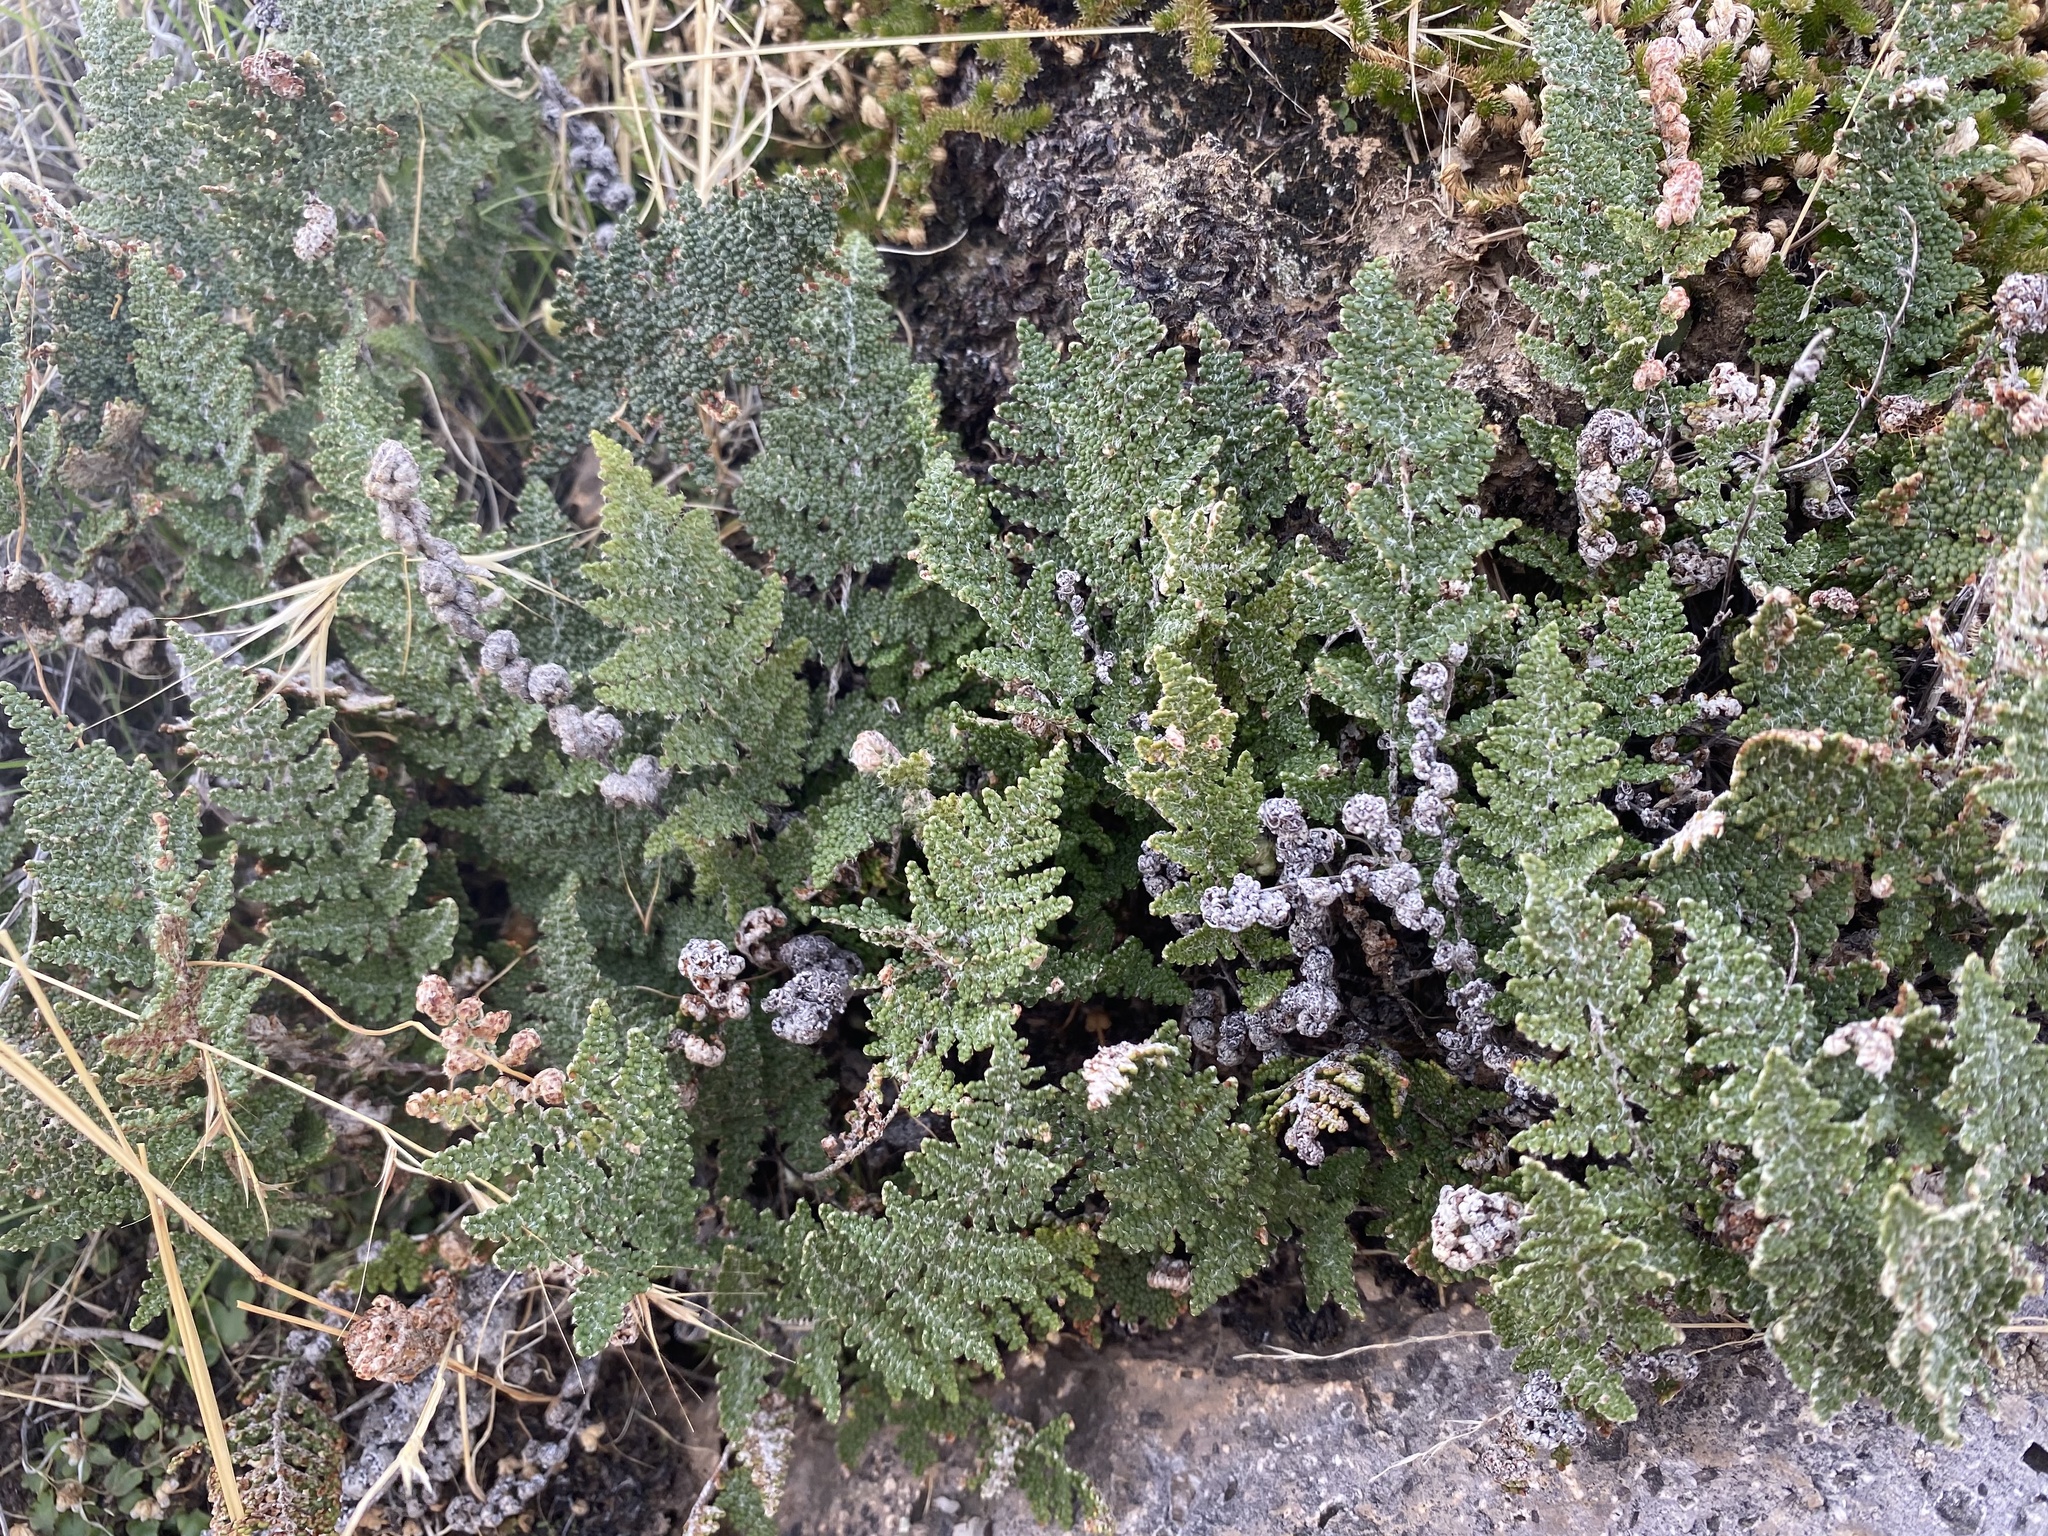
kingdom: Plantae
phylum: Tracheophyta
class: Polypodiopsida
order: Polypodiales
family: Pteridaceae
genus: Myriopteris
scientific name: Myriopteris yavapensis
